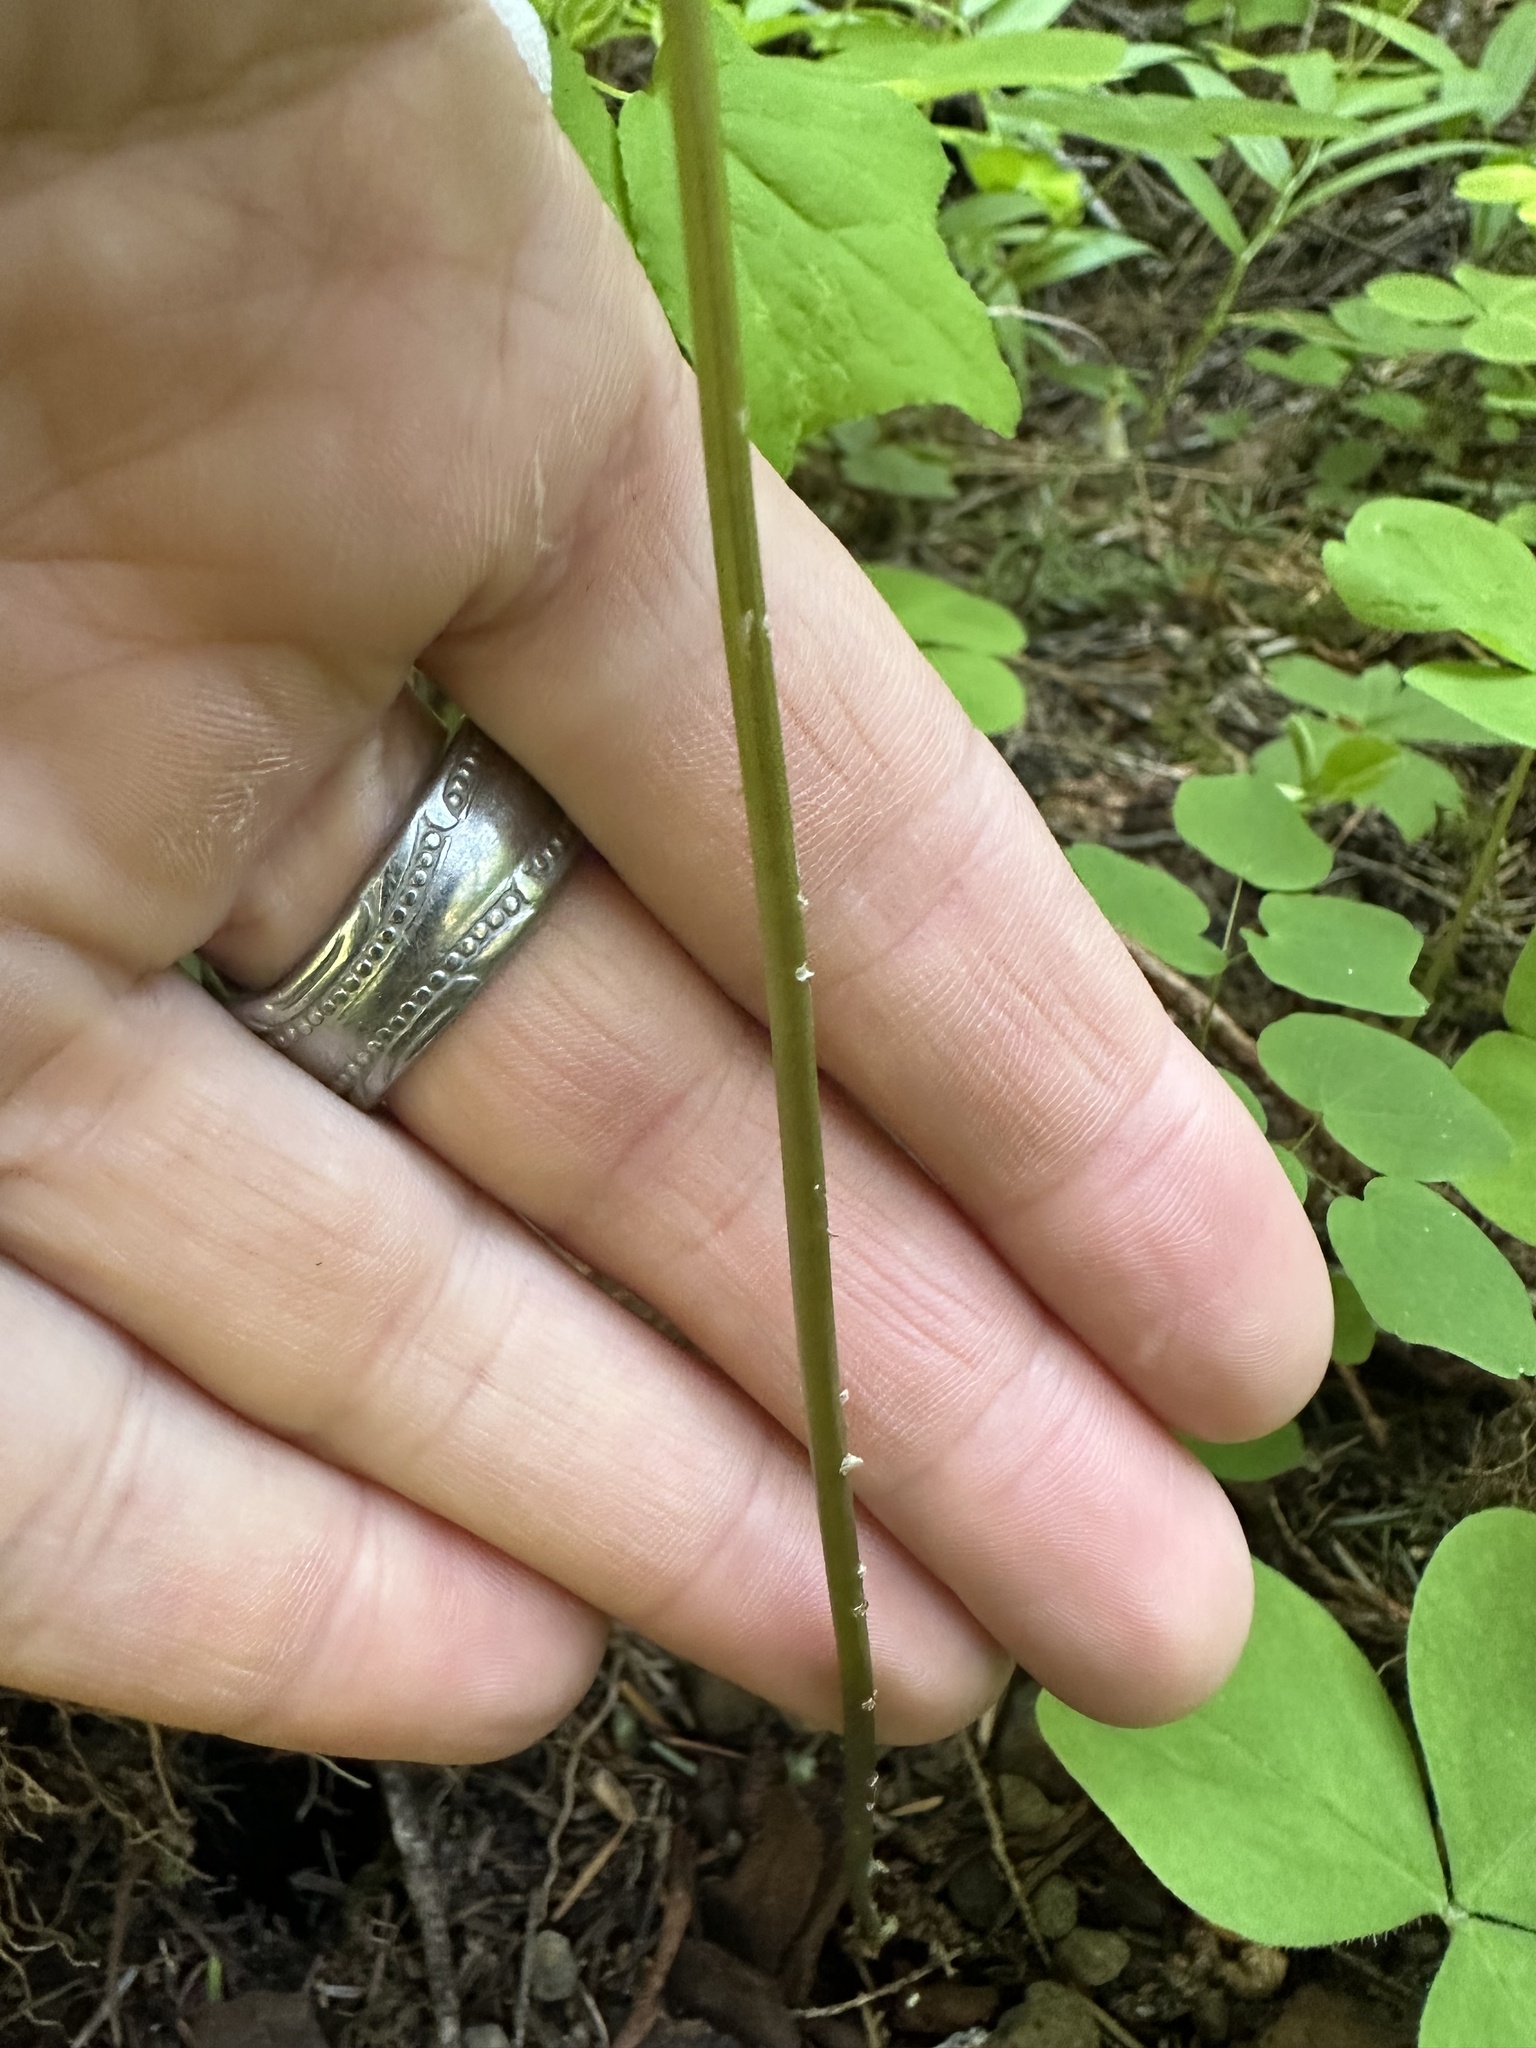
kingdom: Plantae
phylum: Tracheophyta
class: Polypodiopsida
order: Polypodiales
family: Cystopteridaceae
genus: Gymnocarpium
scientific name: Gymnocarpium disjunctum
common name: Western oak fern
